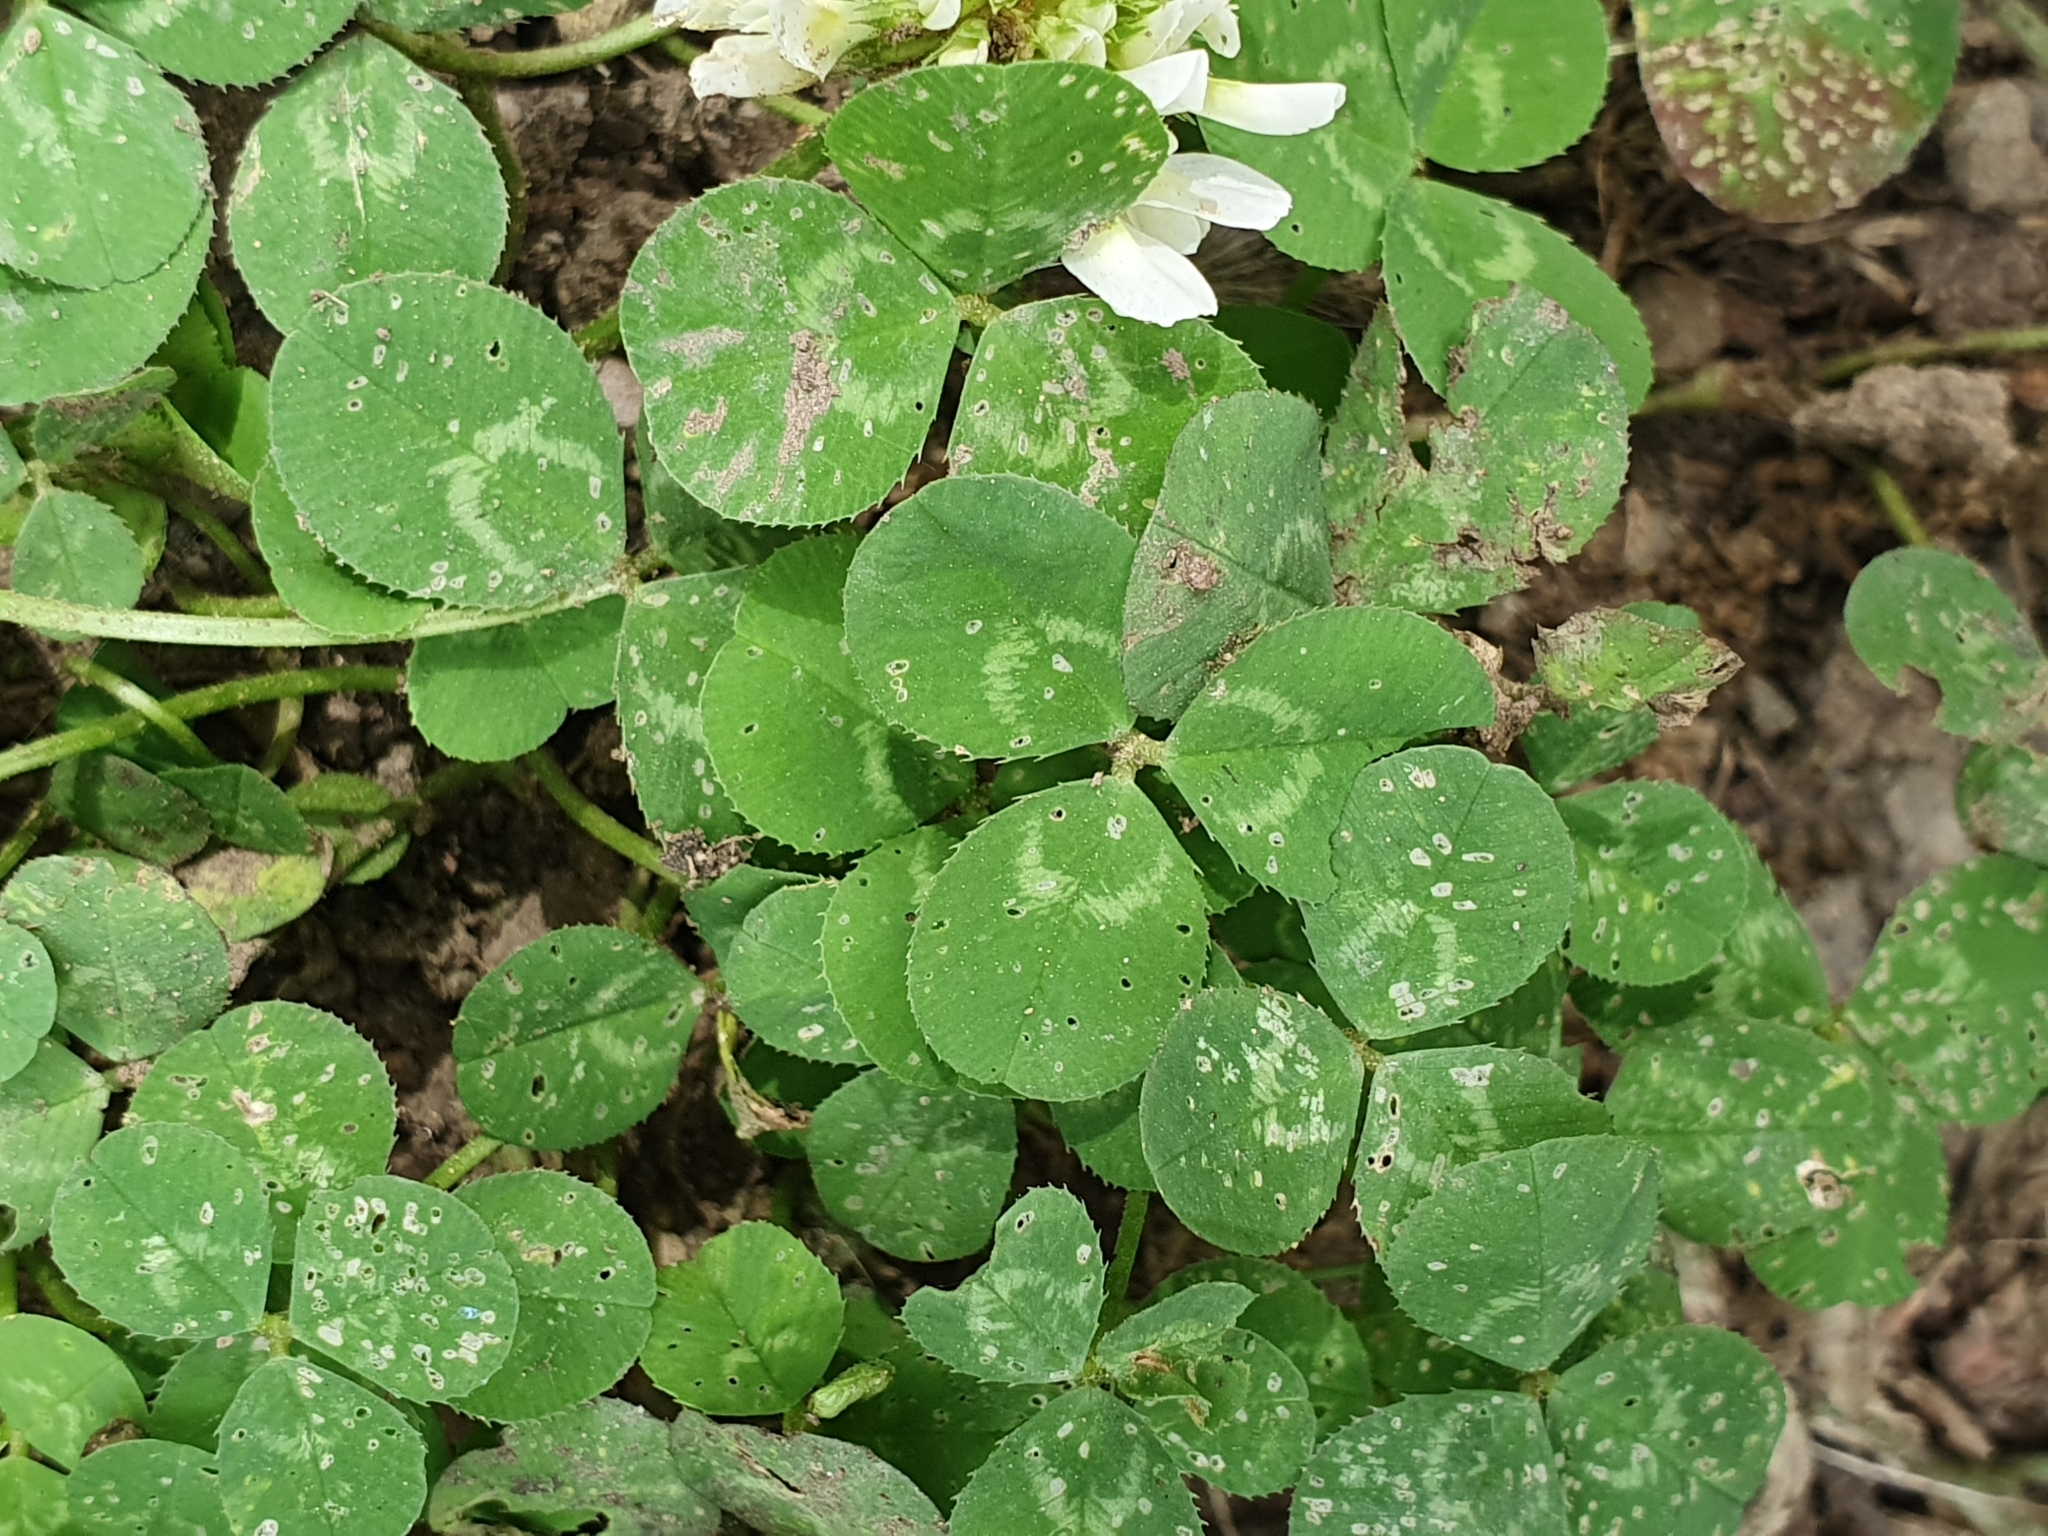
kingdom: Plantae
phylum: Tracheophyta
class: Magnoliopsida
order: Fabales
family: Fabaceae
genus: Trifolium
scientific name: Trifolium repens
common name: White clover
